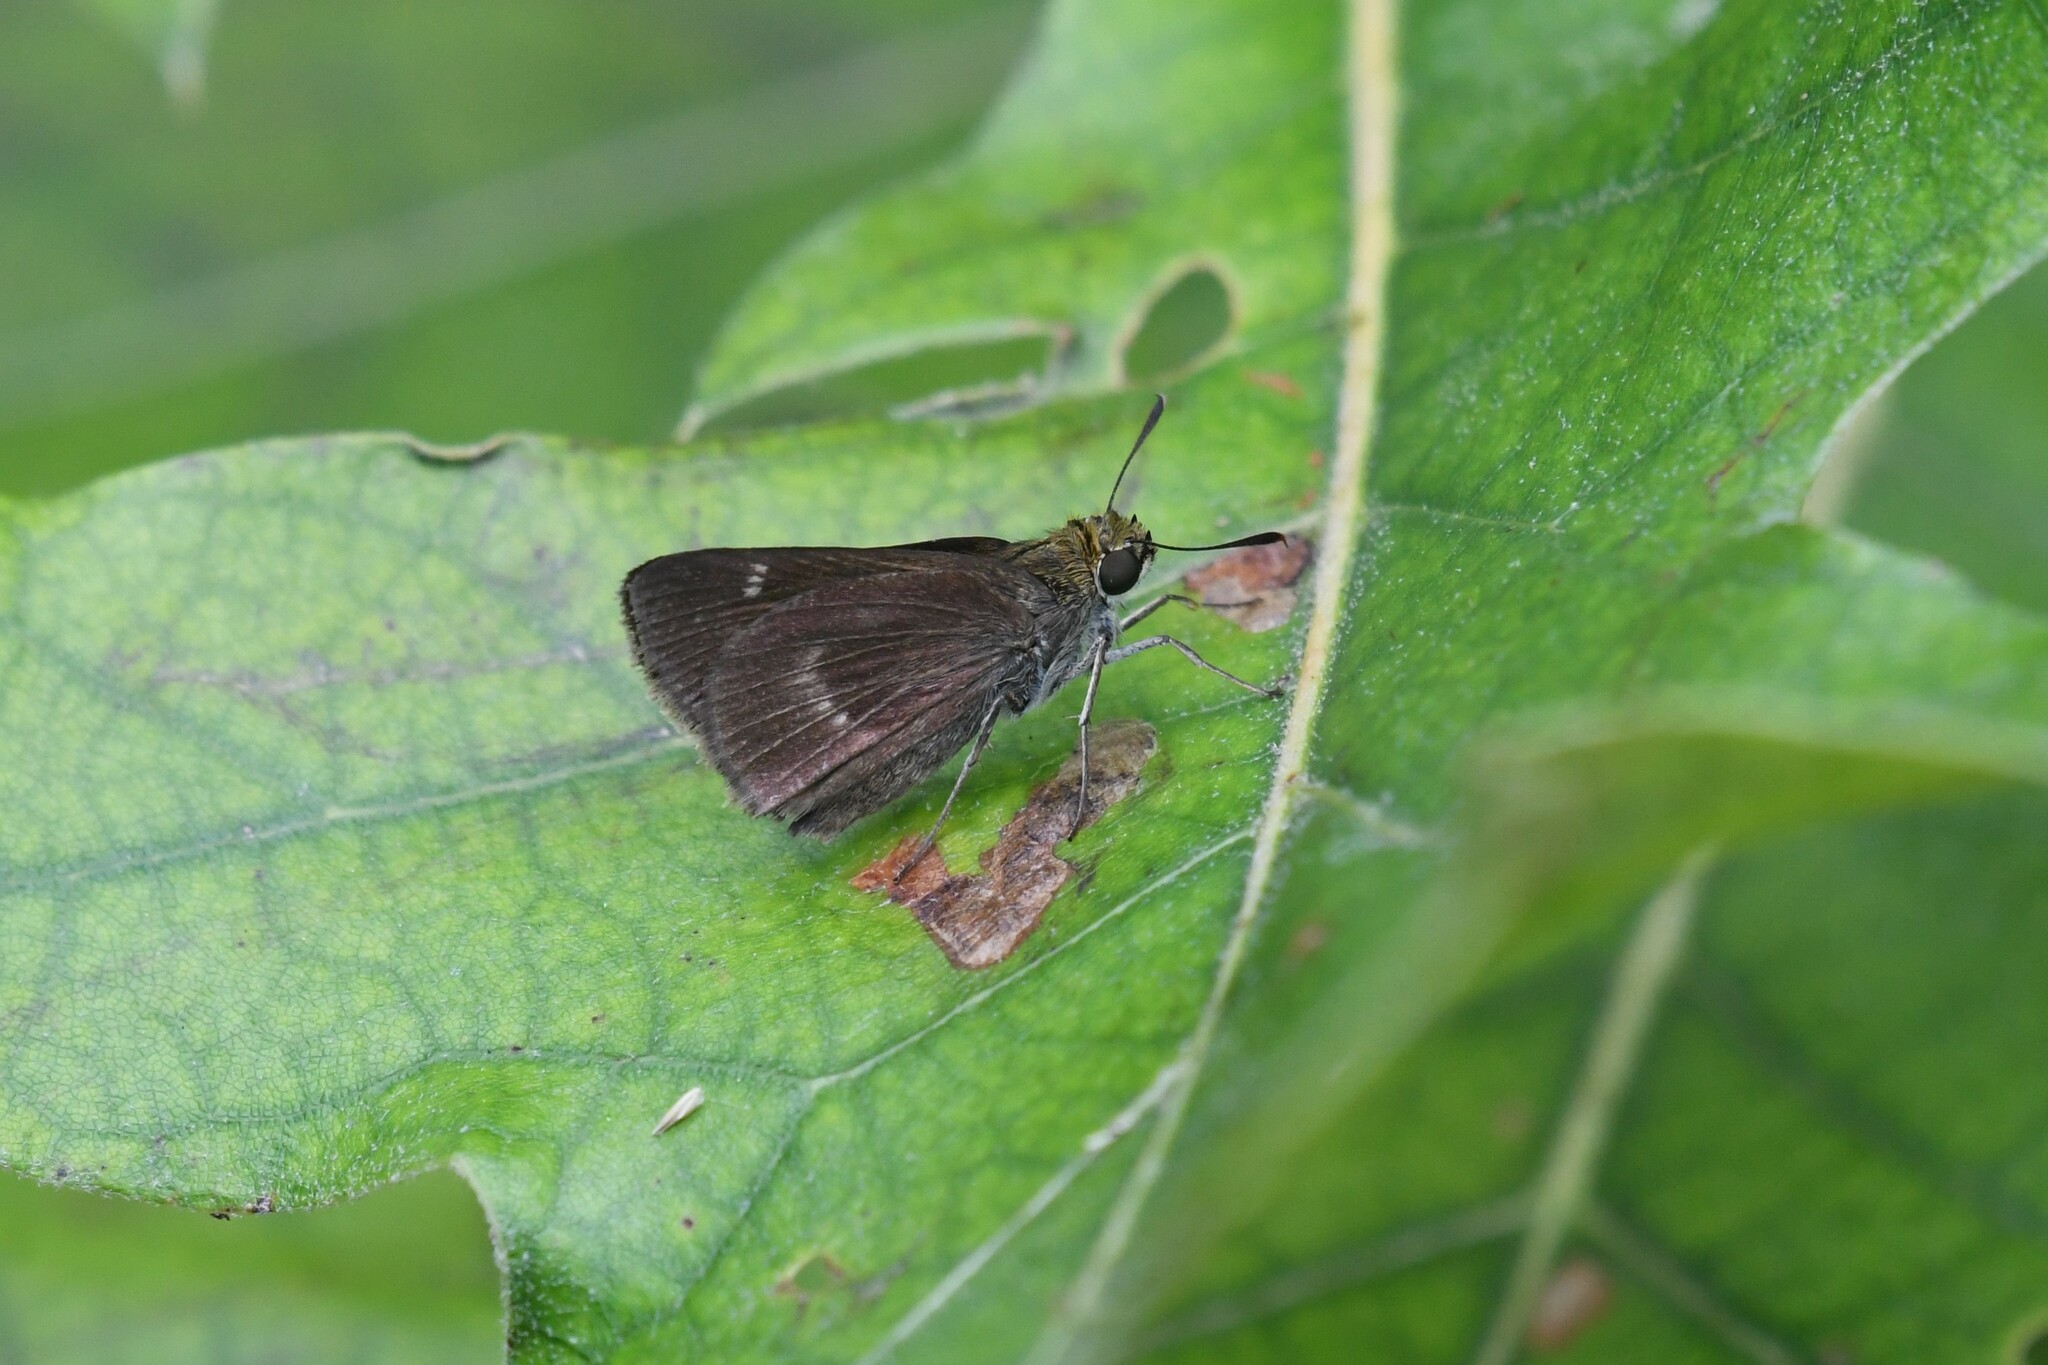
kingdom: Animalia
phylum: Arthropoda
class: Insecta
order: Lepidoptera
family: Hesperiidae
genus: Euphyes
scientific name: Euphyes vestris
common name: Dun skipper
